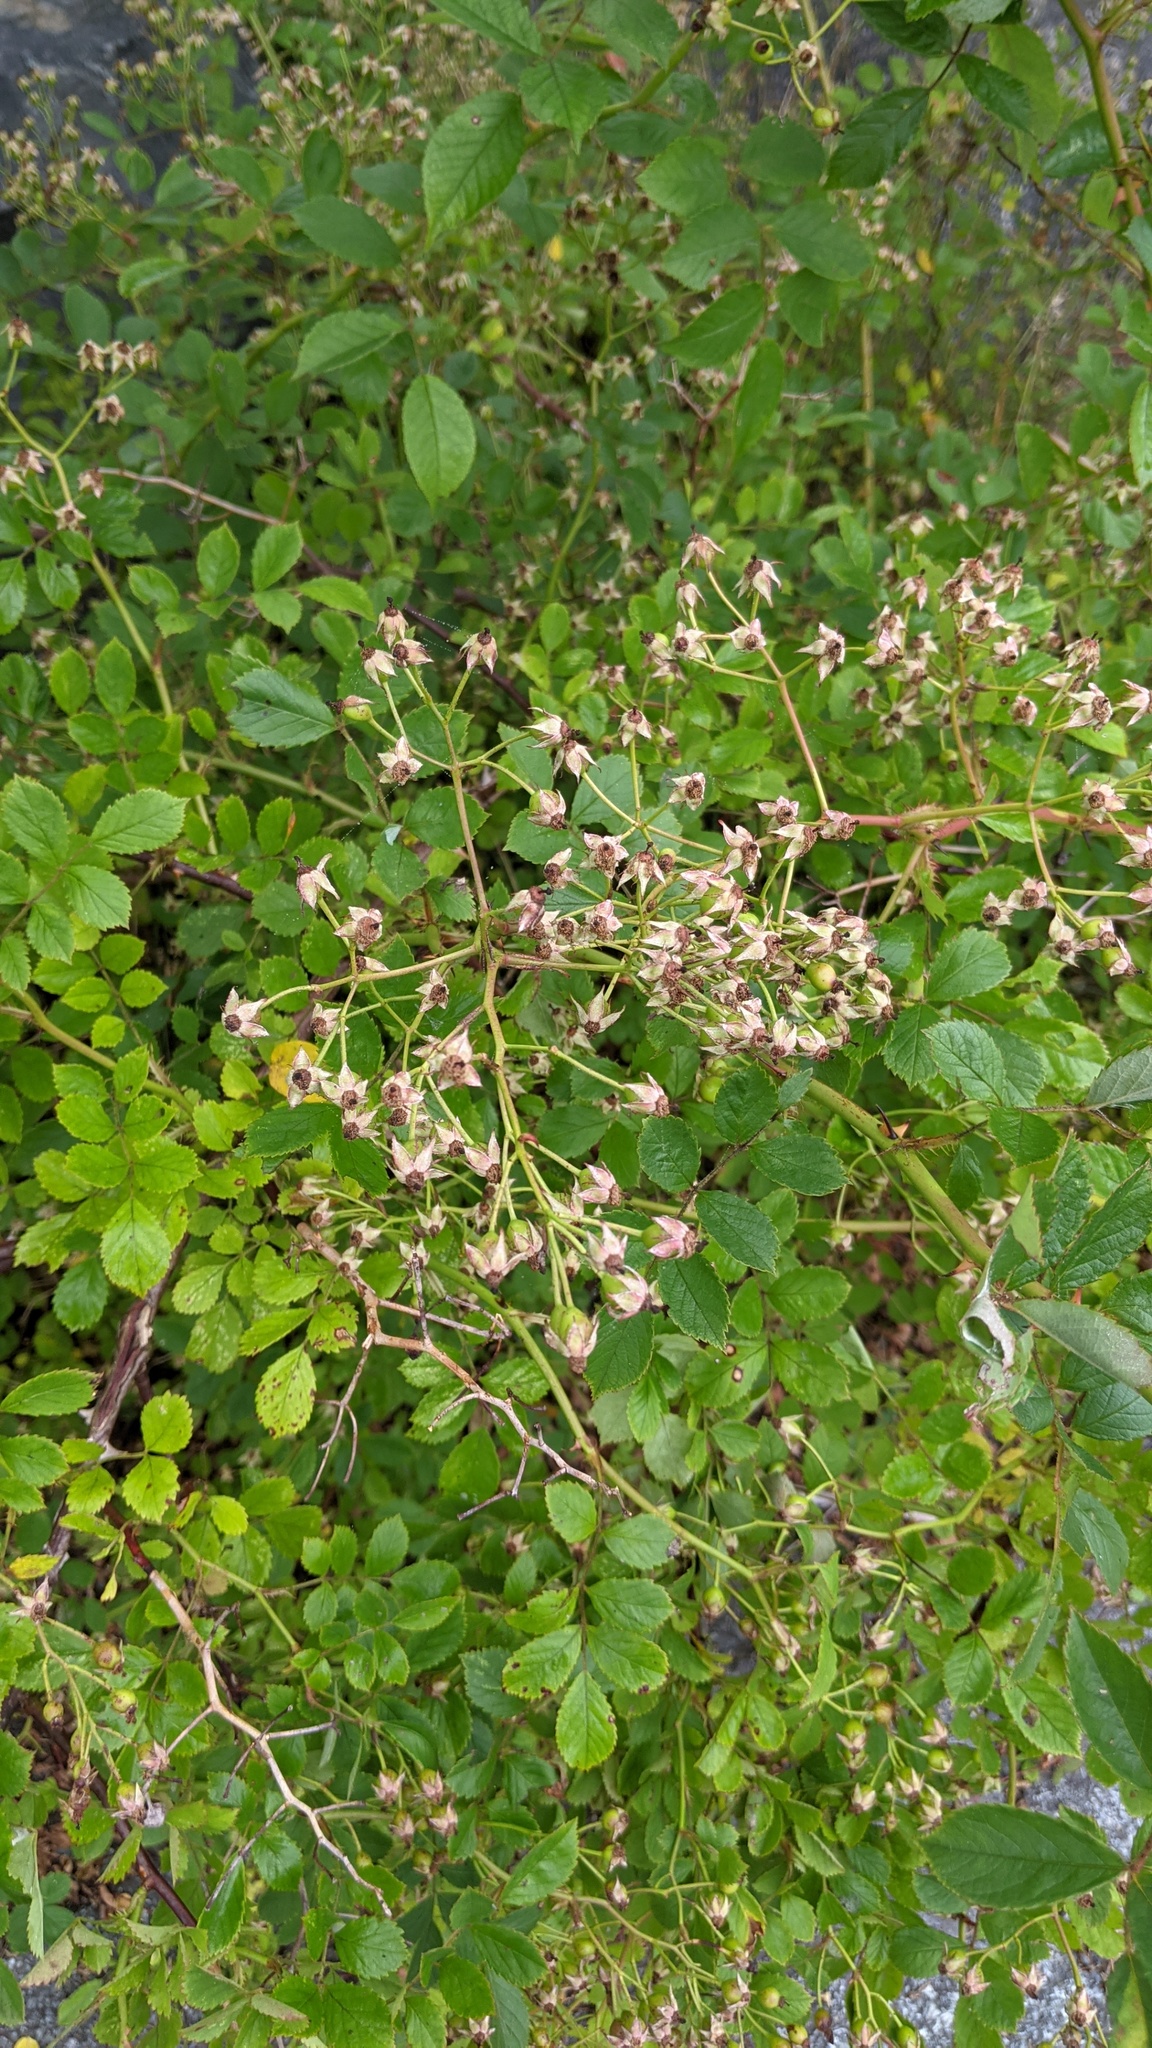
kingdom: Plantae
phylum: Tracheophyta
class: Magnoliopsida
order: Rosales
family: Rosaceae
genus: Rosa
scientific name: Rosa multiflora
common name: Multiflora rose
